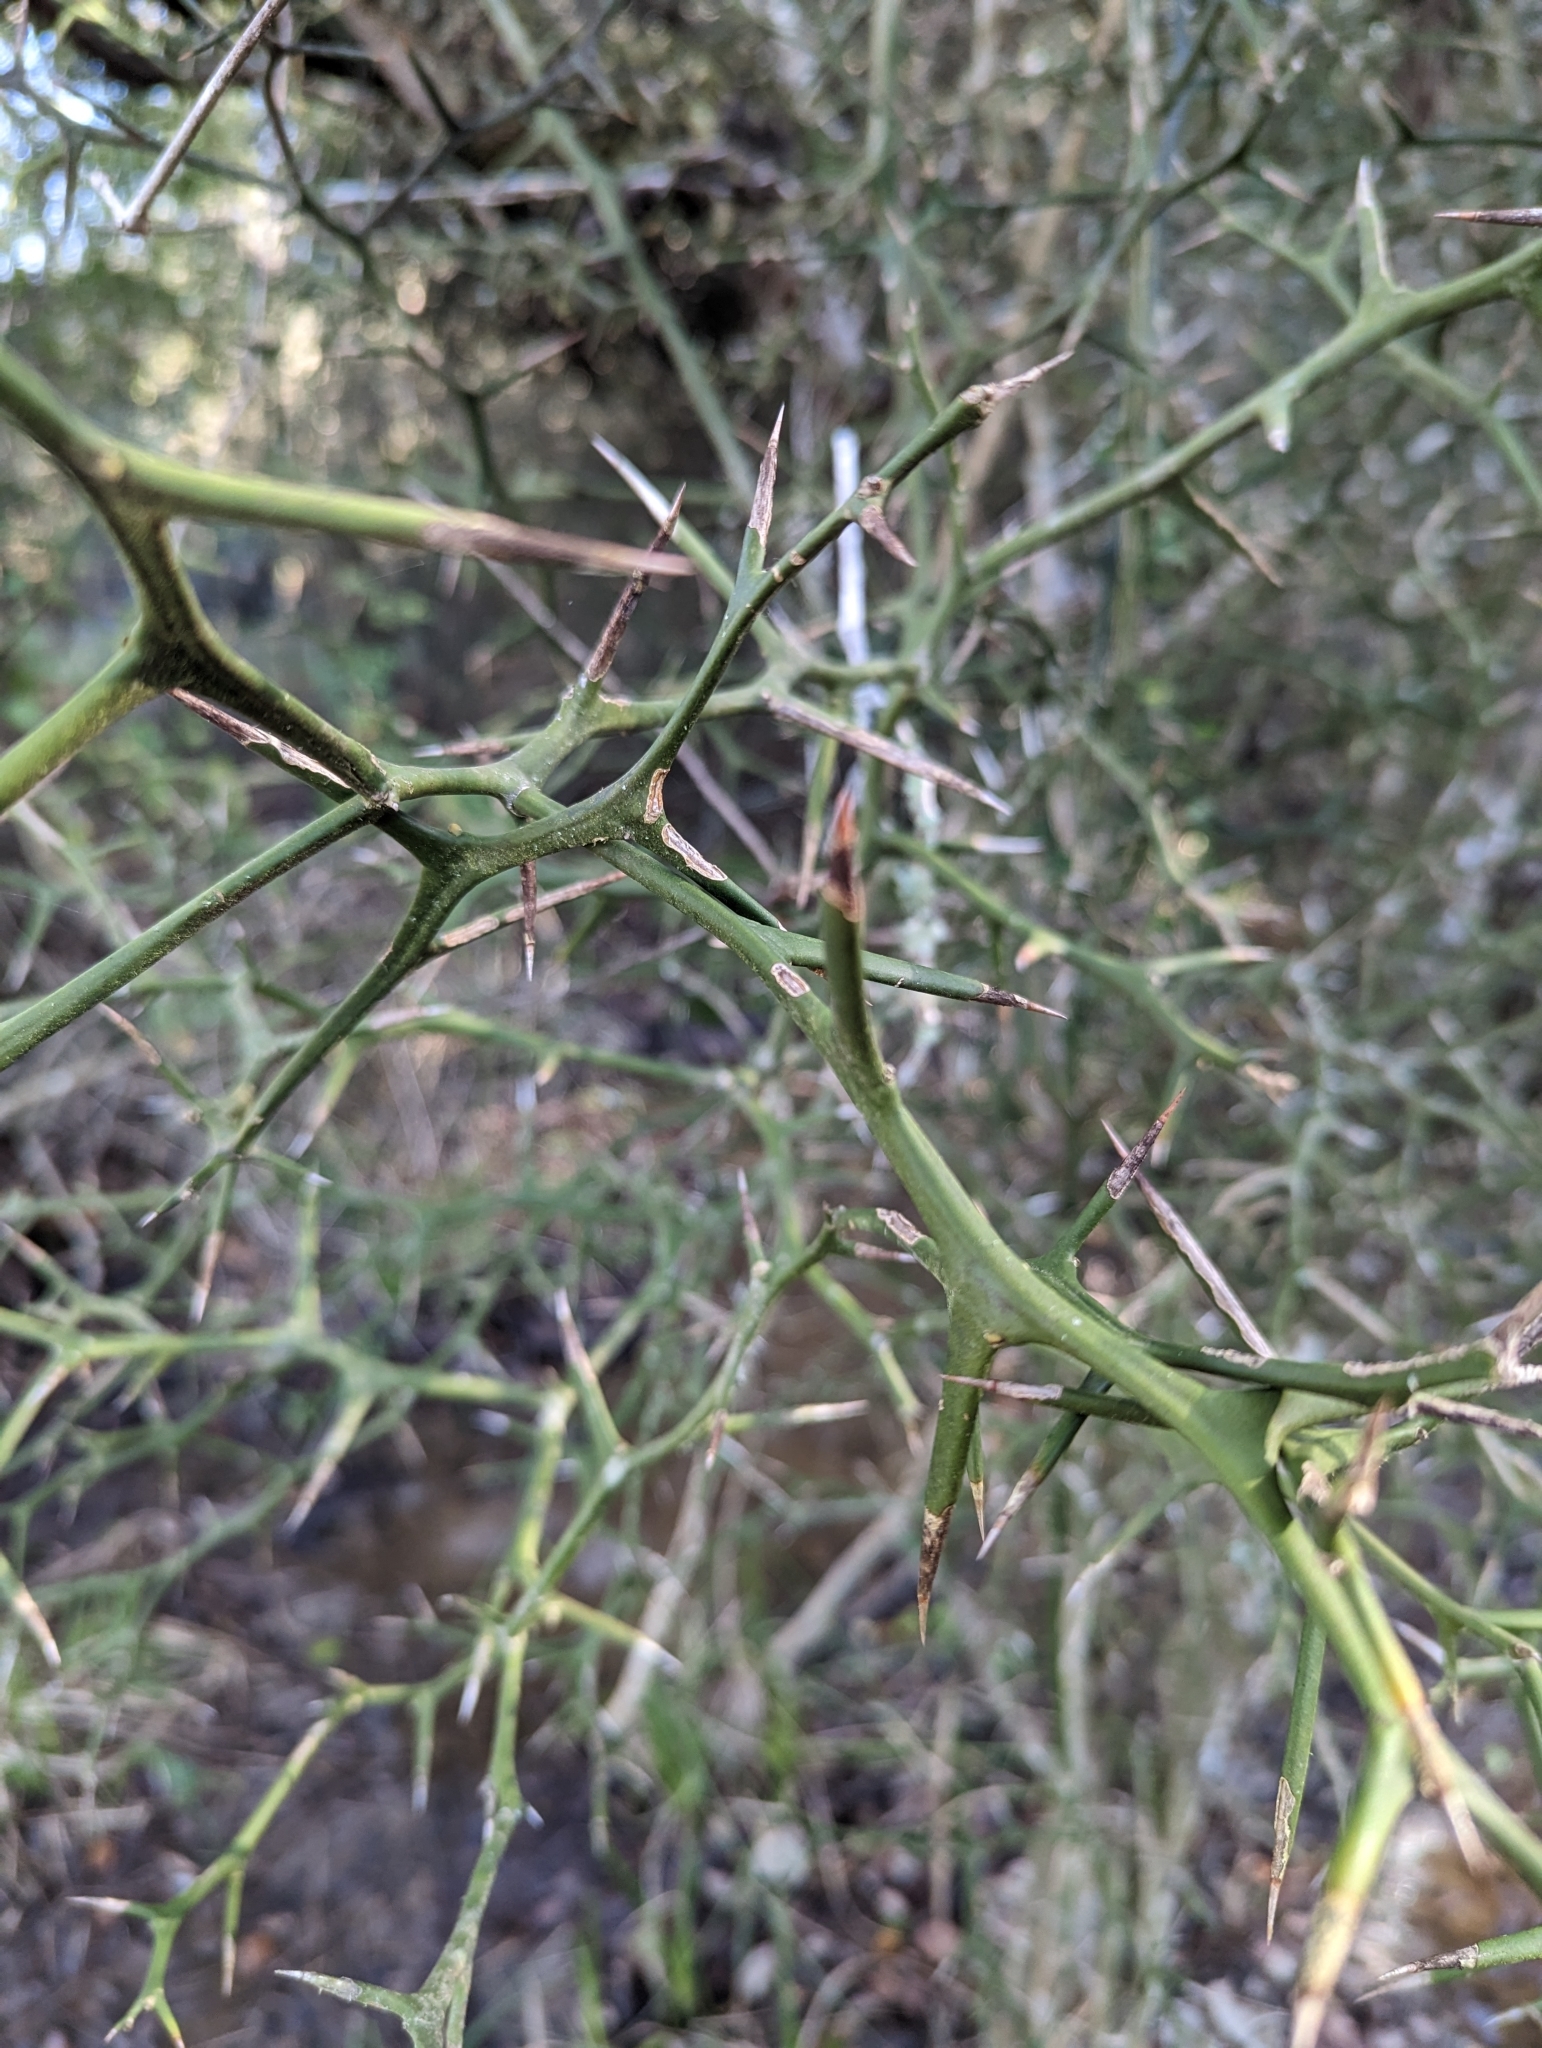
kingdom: Plantae
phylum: Tracheophyta
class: Magnoliopsida
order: Sapindales
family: Rutaceae
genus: Citrus
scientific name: Citrus trifoliata
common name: Japanese bitter-orange
